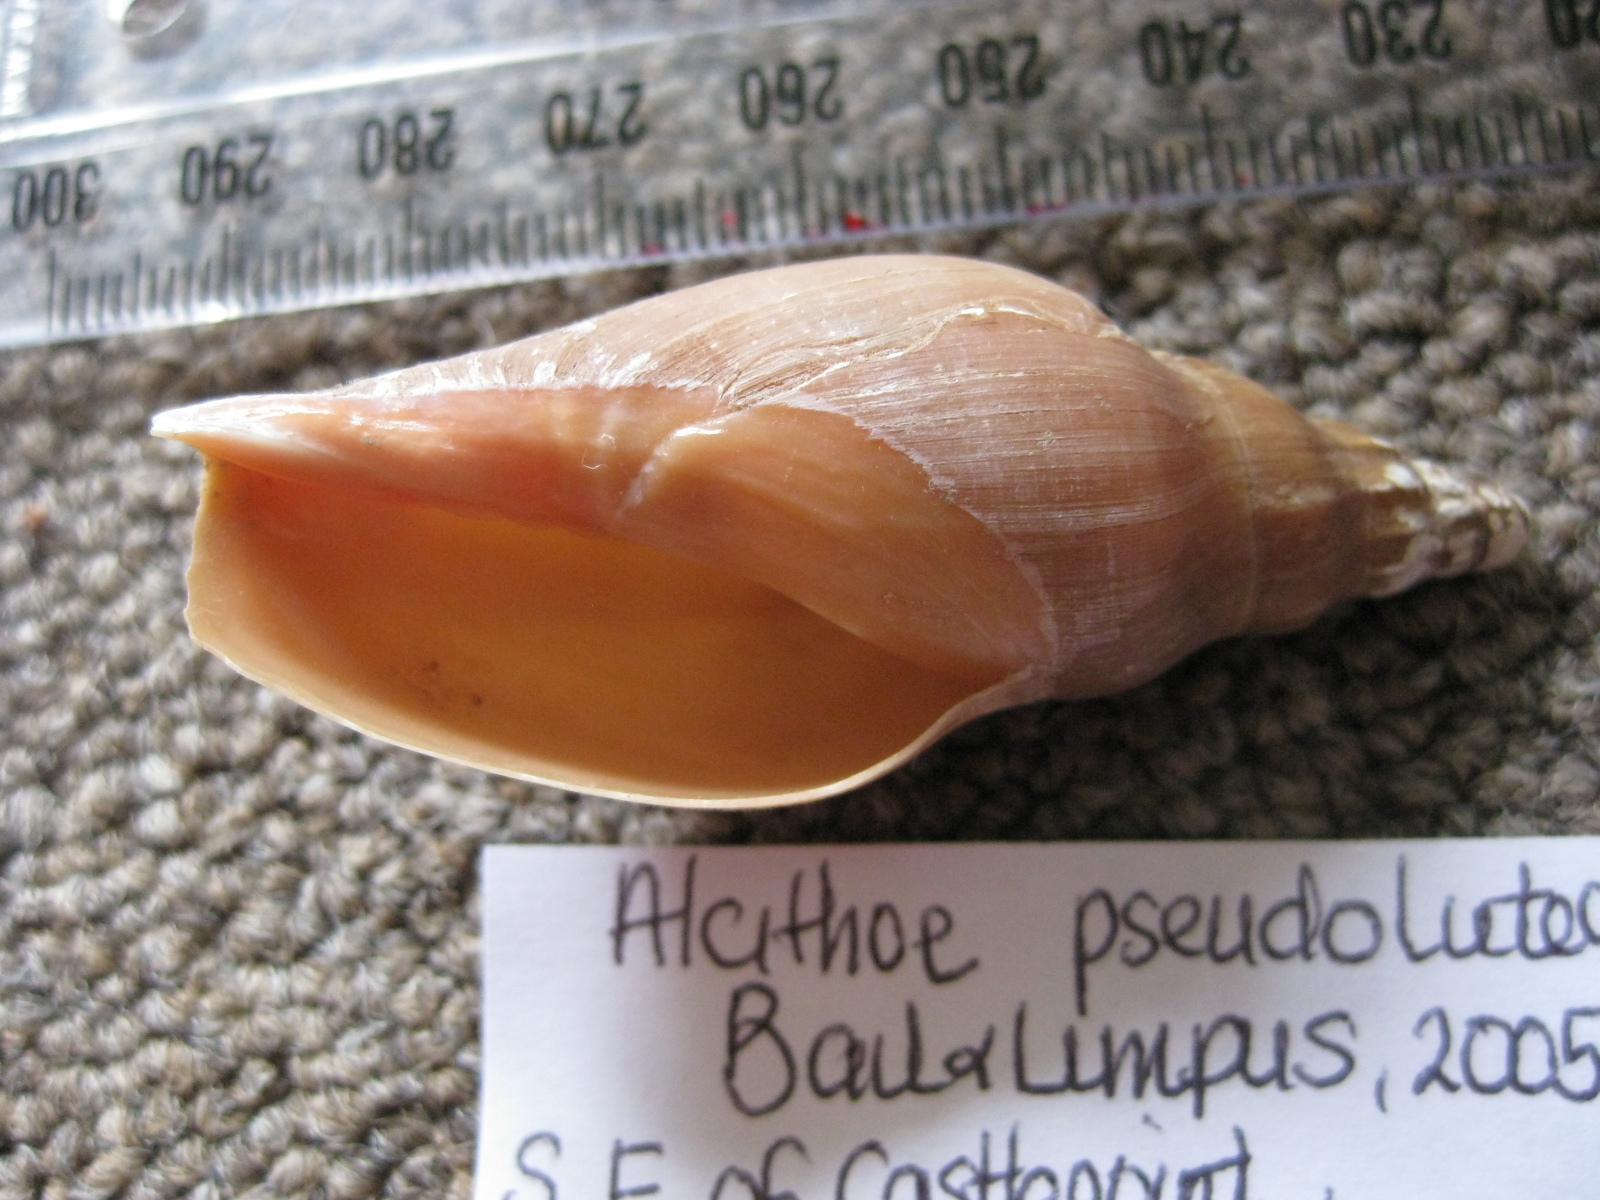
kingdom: Animalia
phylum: Mollusca
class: Gastropoda
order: Neogastropoda
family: Volutidae
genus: Alcithoe
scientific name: Alcithoe pseudolutea
